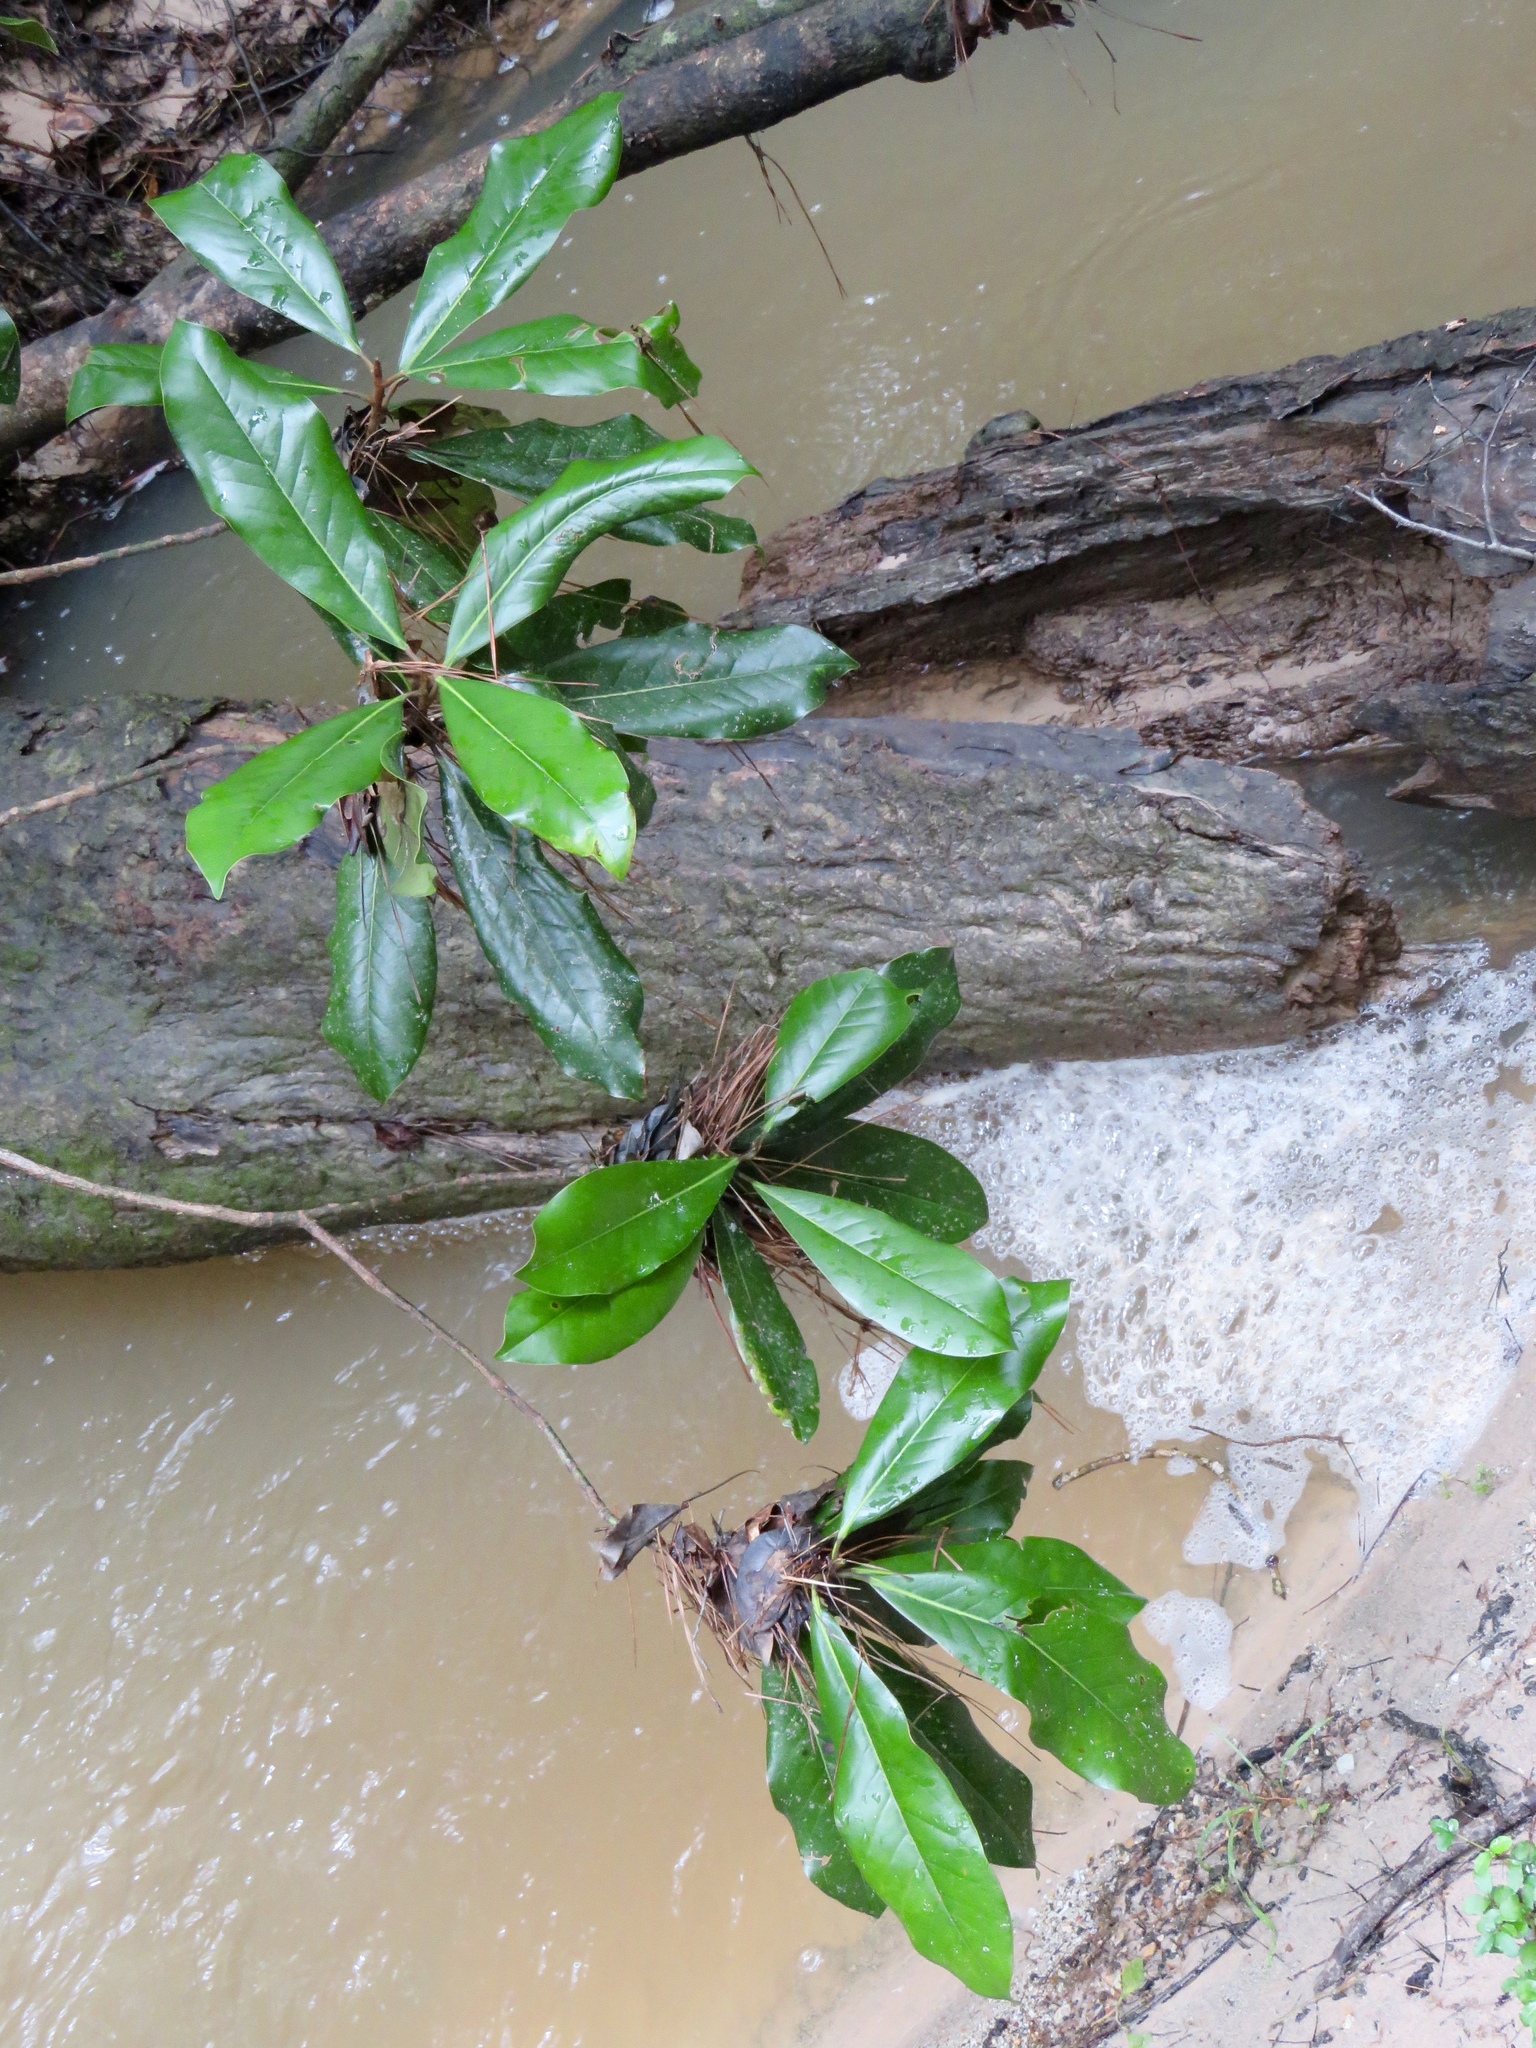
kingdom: Plantae
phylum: Tracheophyta
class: Magnoliopsida
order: Magnoliales
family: Magnoliaceae
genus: Magnolia
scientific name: Magnolia grandiflora
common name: Southern magnolia
